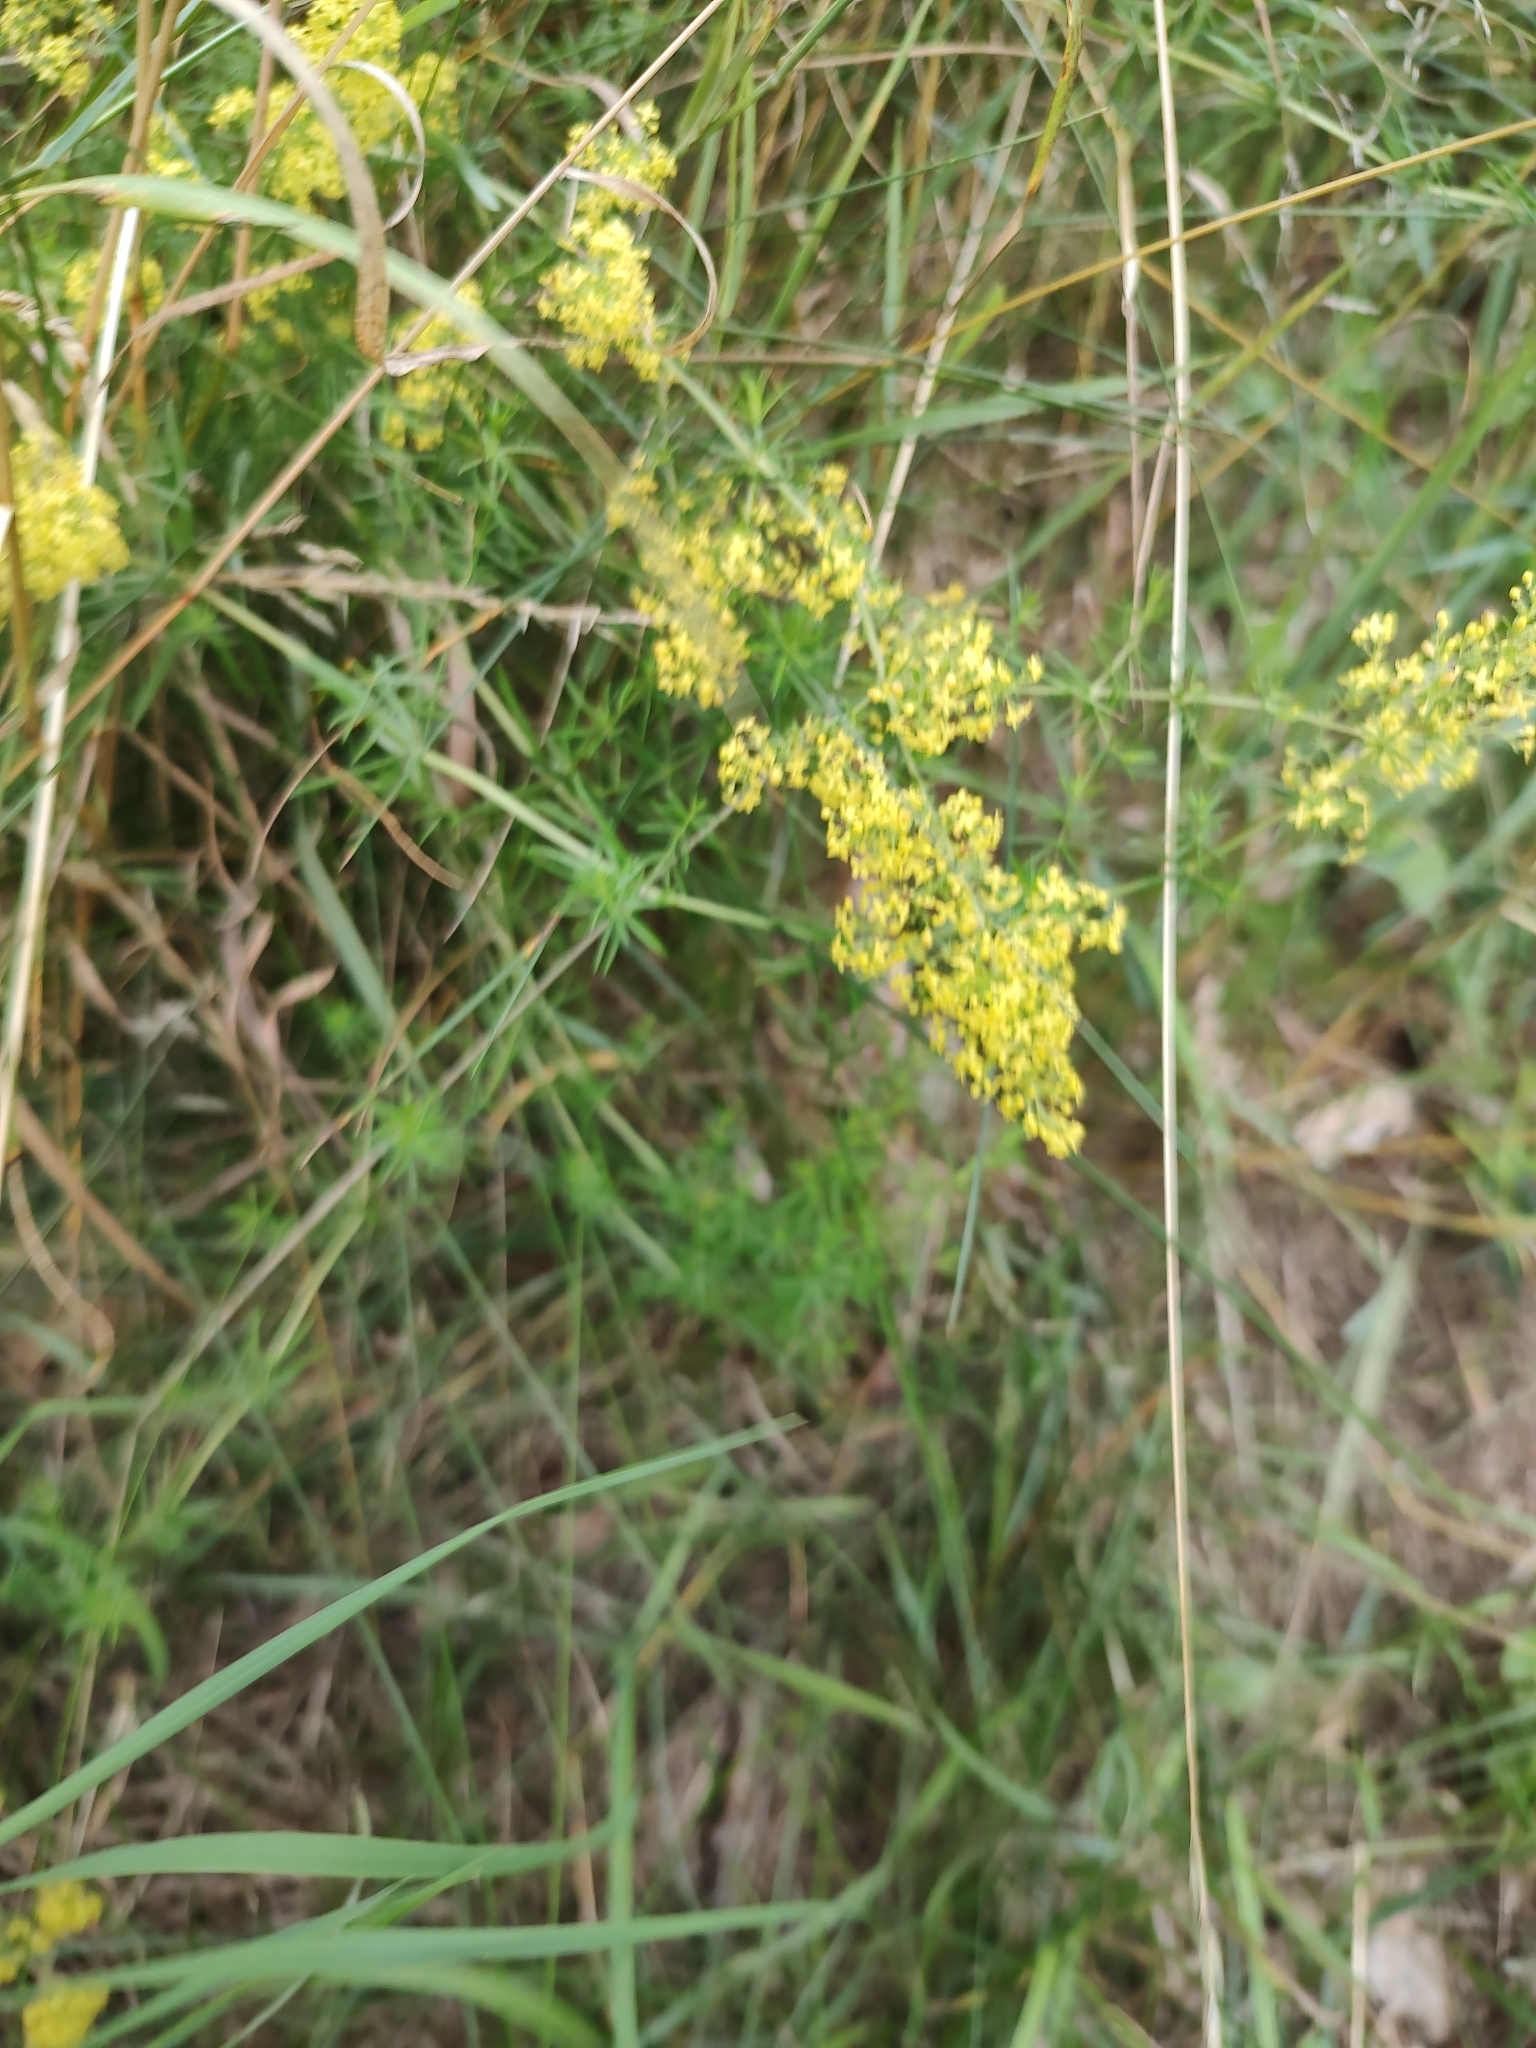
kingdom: Plantae
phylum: Tracheophyta
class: Magnoliopsida
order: Gentianales
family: Rubiaceae
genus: Galium
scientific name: Galium verum
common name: Lady's bedstraw
